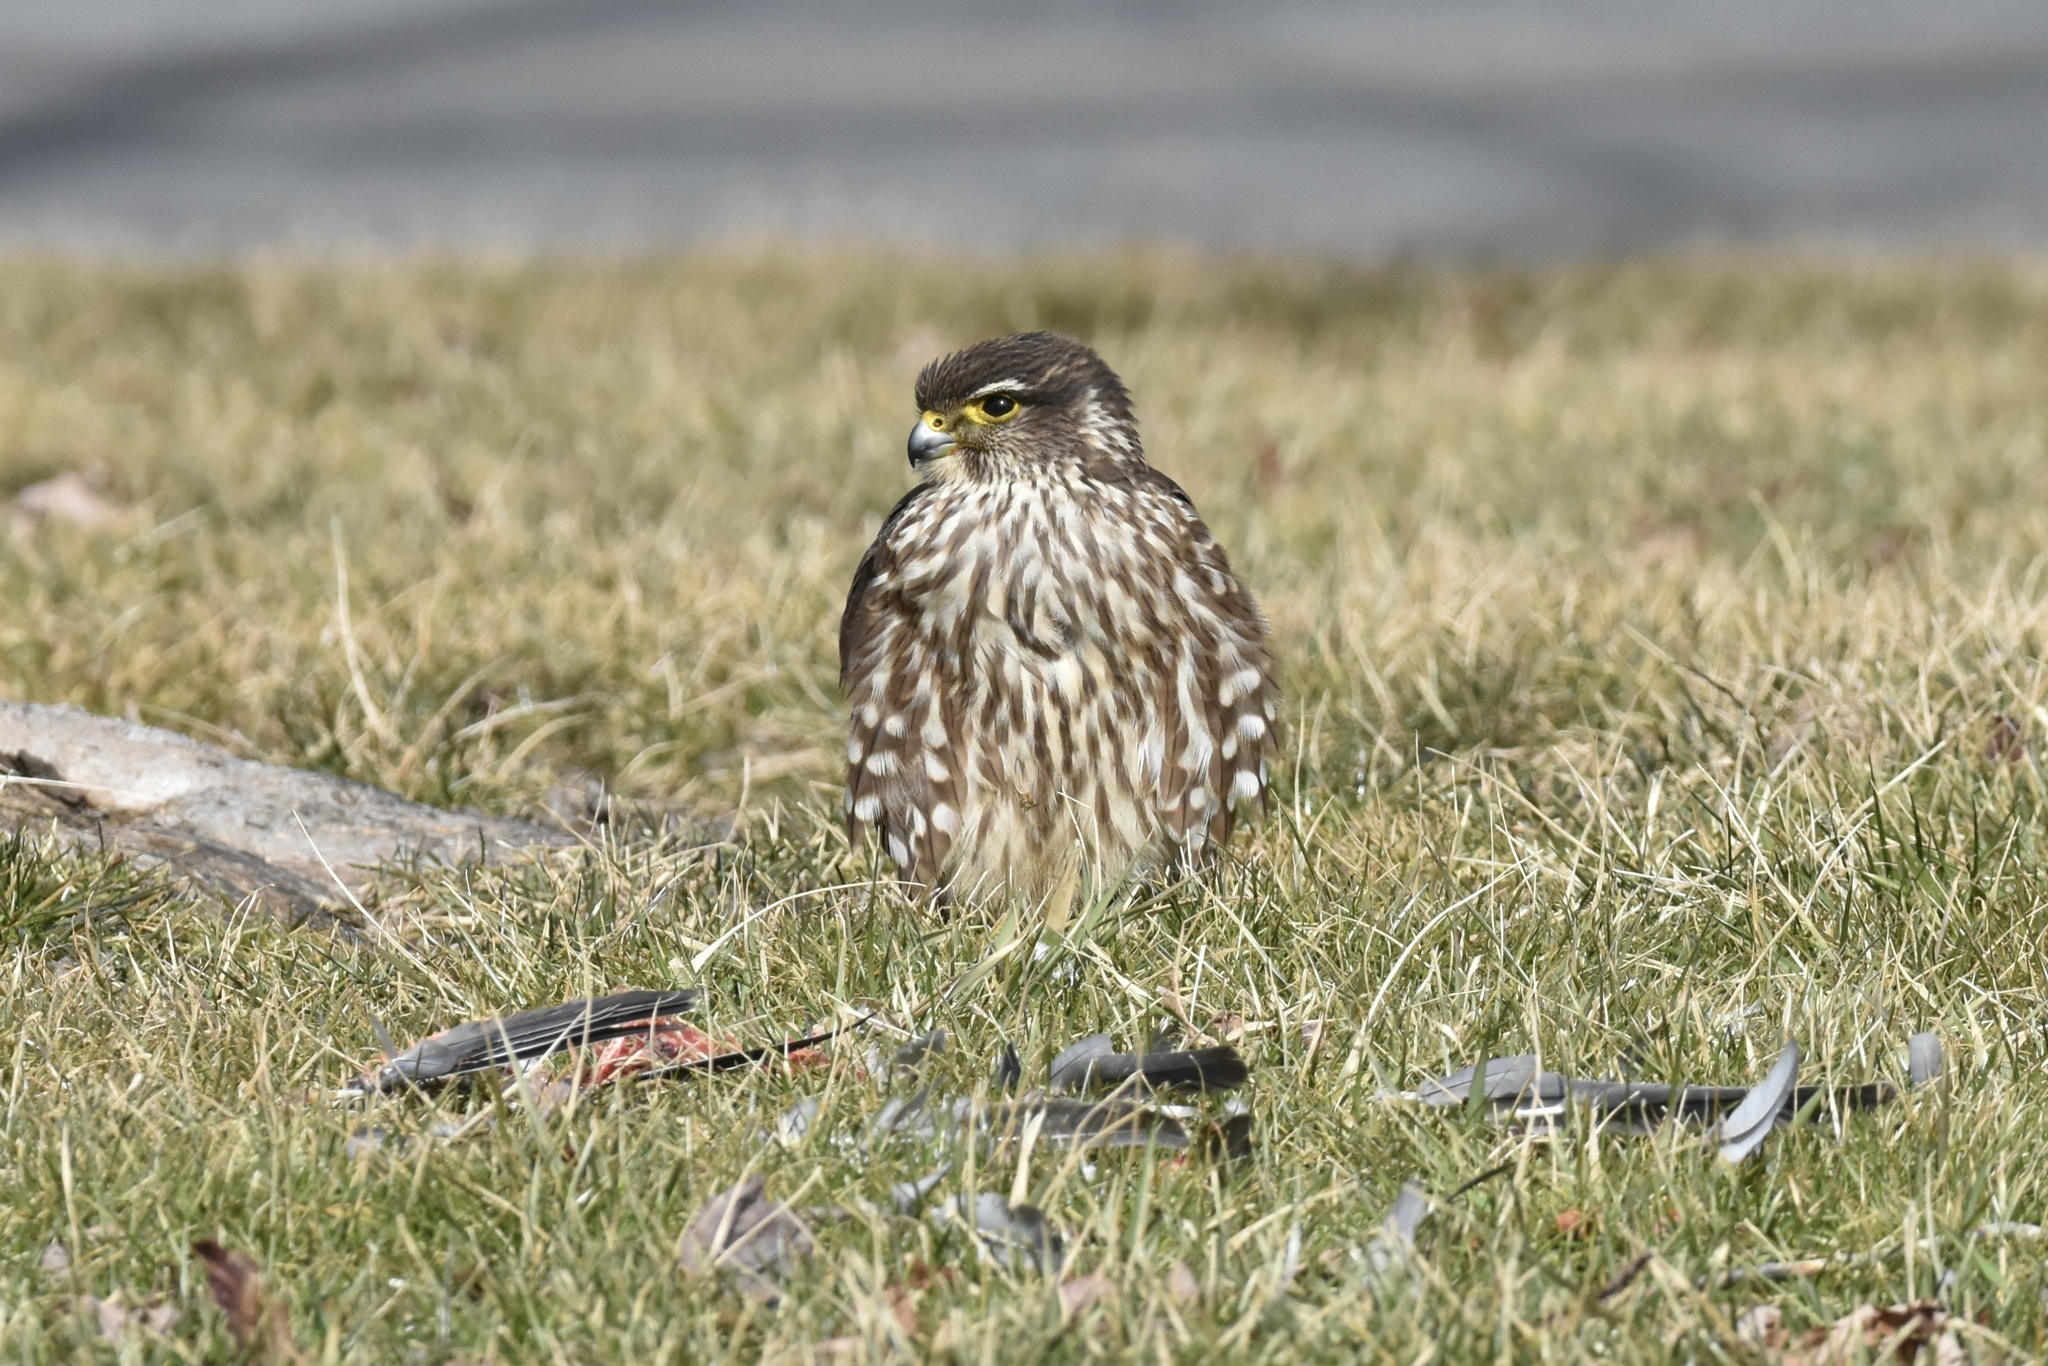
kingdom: Animalia
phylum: Chordata
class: Aves
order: Falconiformes
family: Falconidae
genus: Falco
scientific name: Falco columbarius
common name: Merlin
